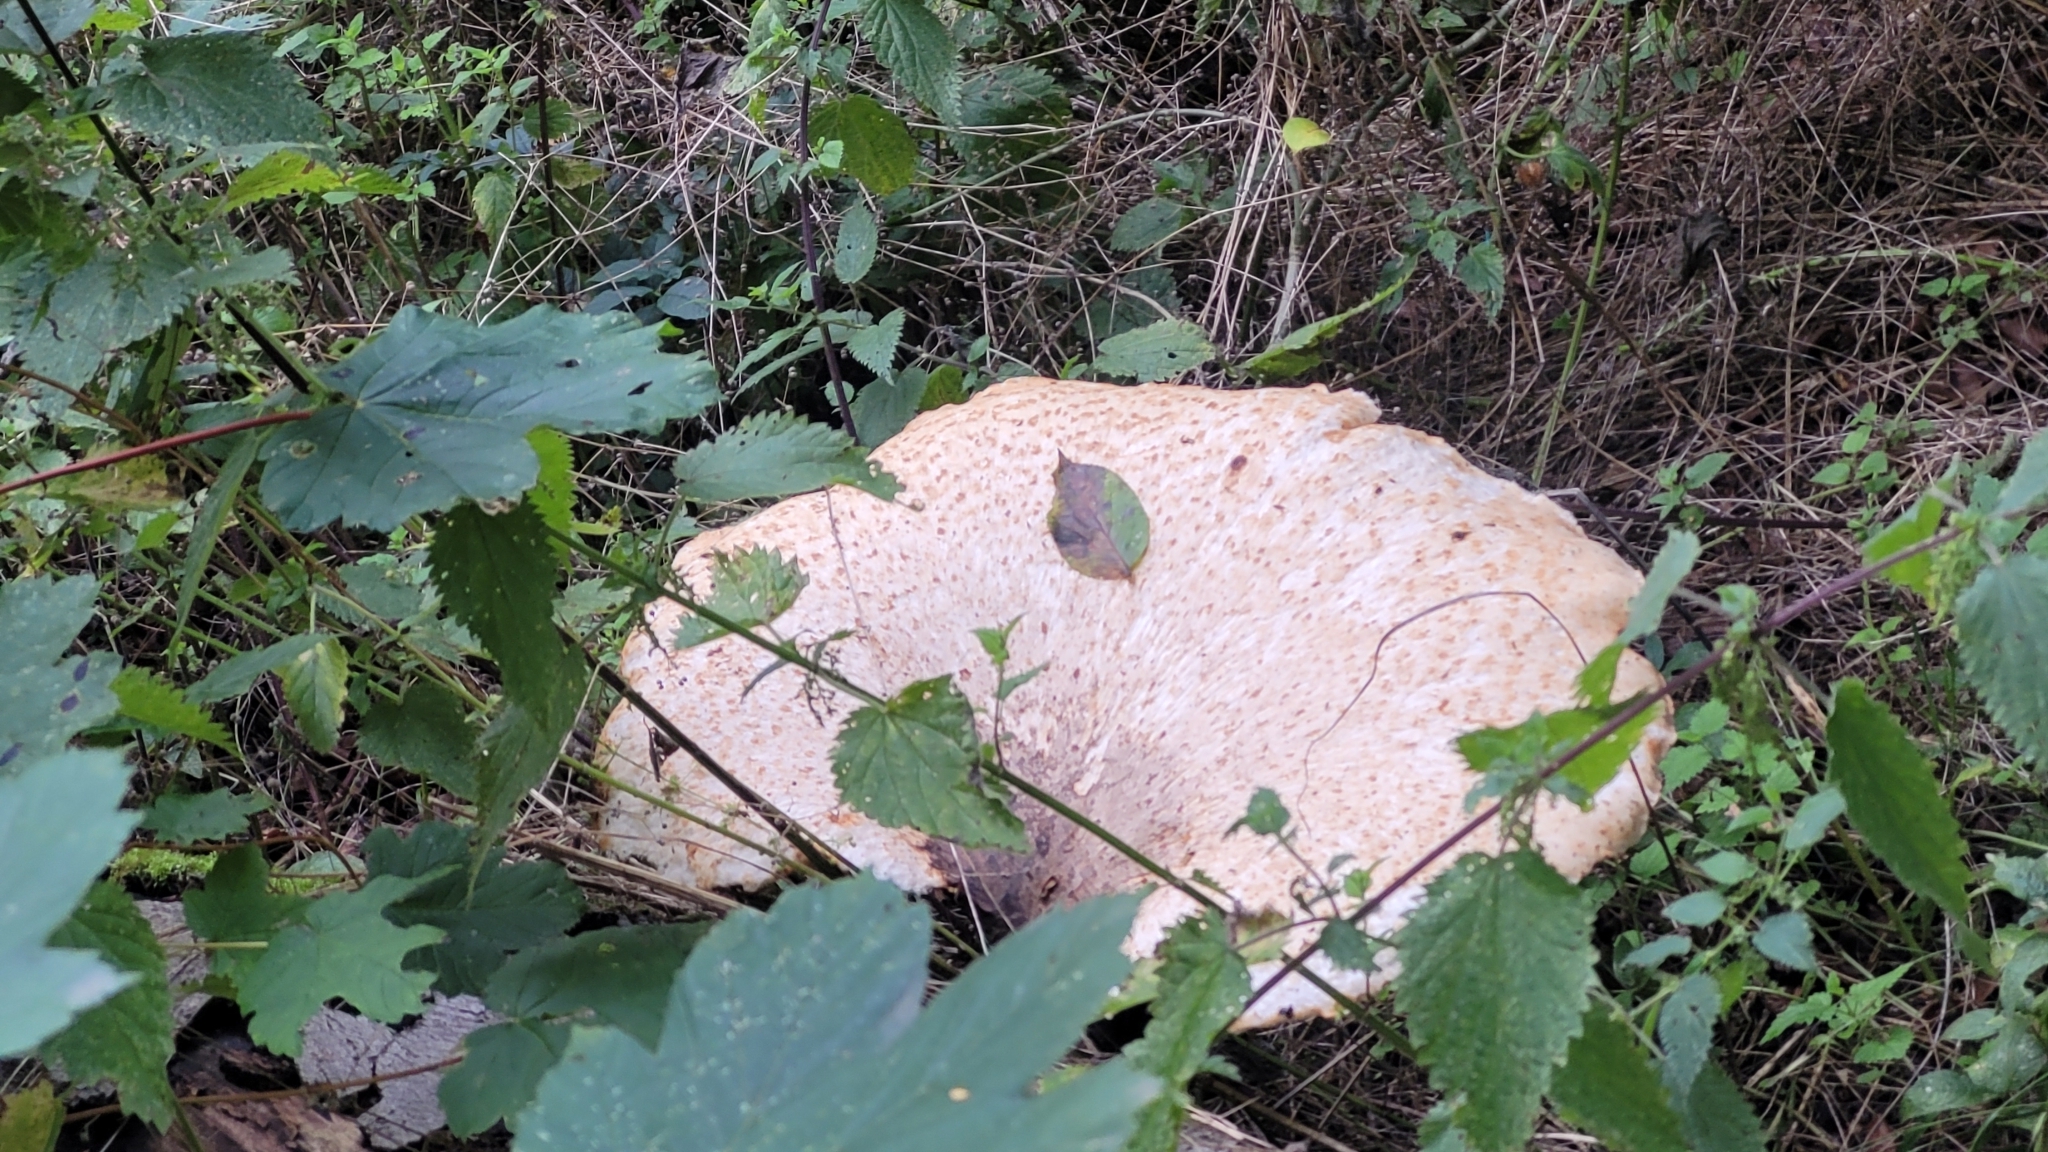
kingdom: Fungi
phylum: Basidiomycota
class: Agaricomycetes
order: Polyporales
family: Polyporaceae
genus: Cerioporus
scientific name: Cerioporus squamosus
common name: Dryad's saddle
